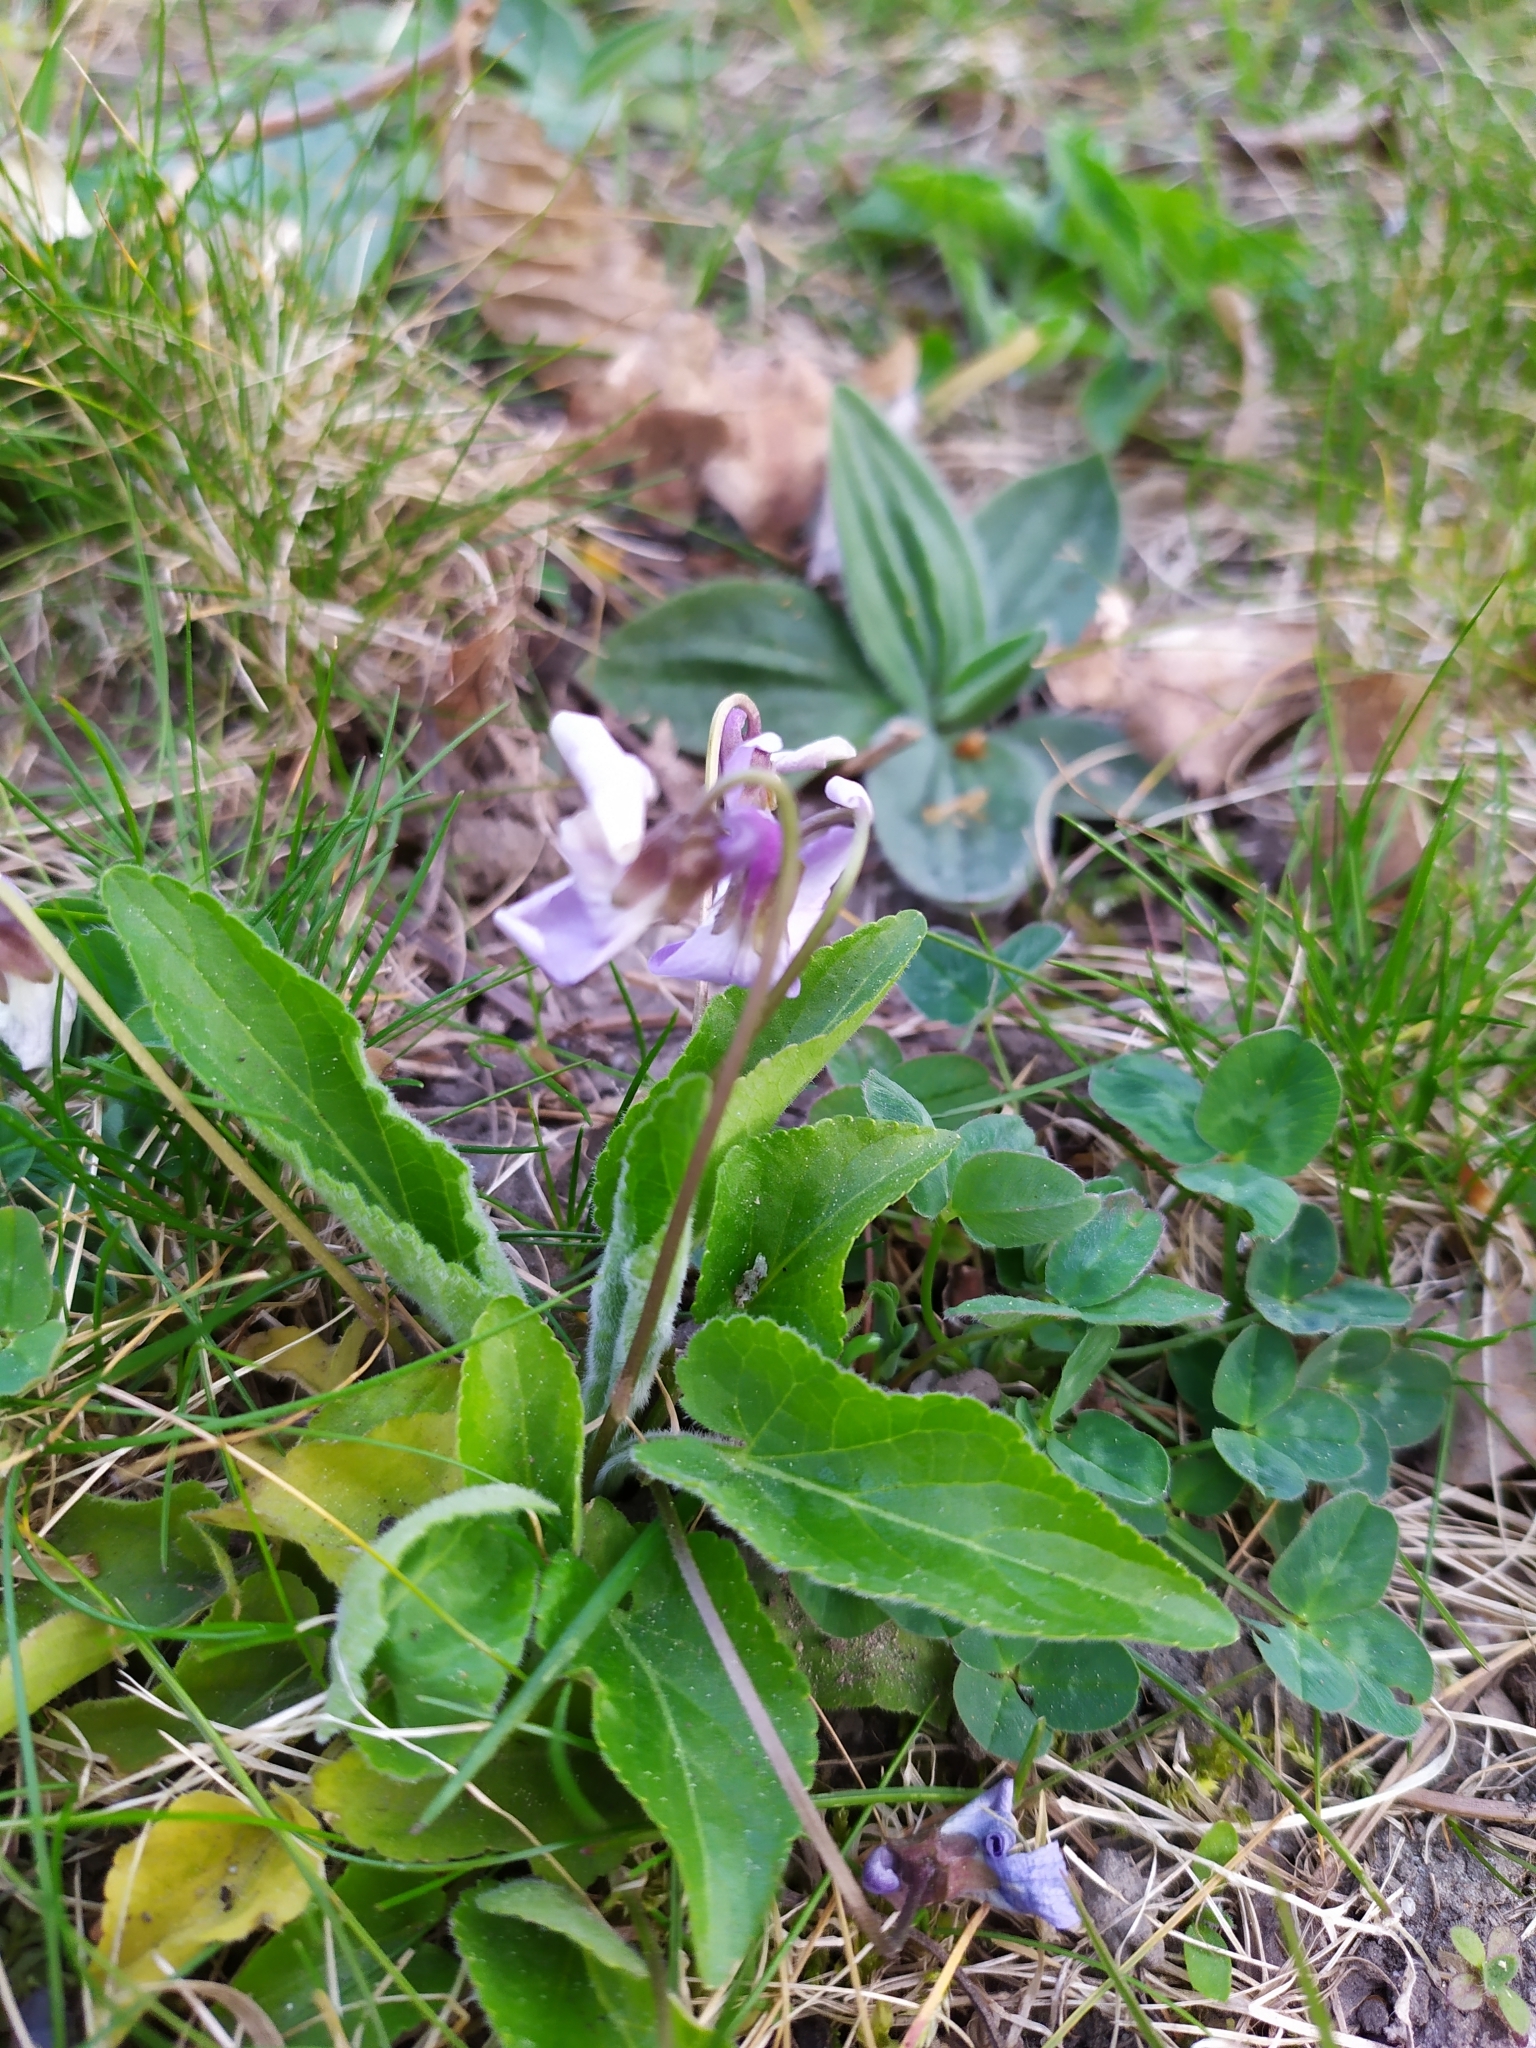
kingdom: Plantae
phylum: Tracheophyta
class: Magnoliopsida
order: Malpighiales
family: Violaceae
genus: Viola
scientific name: Viola hirta
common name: Hairy violet
